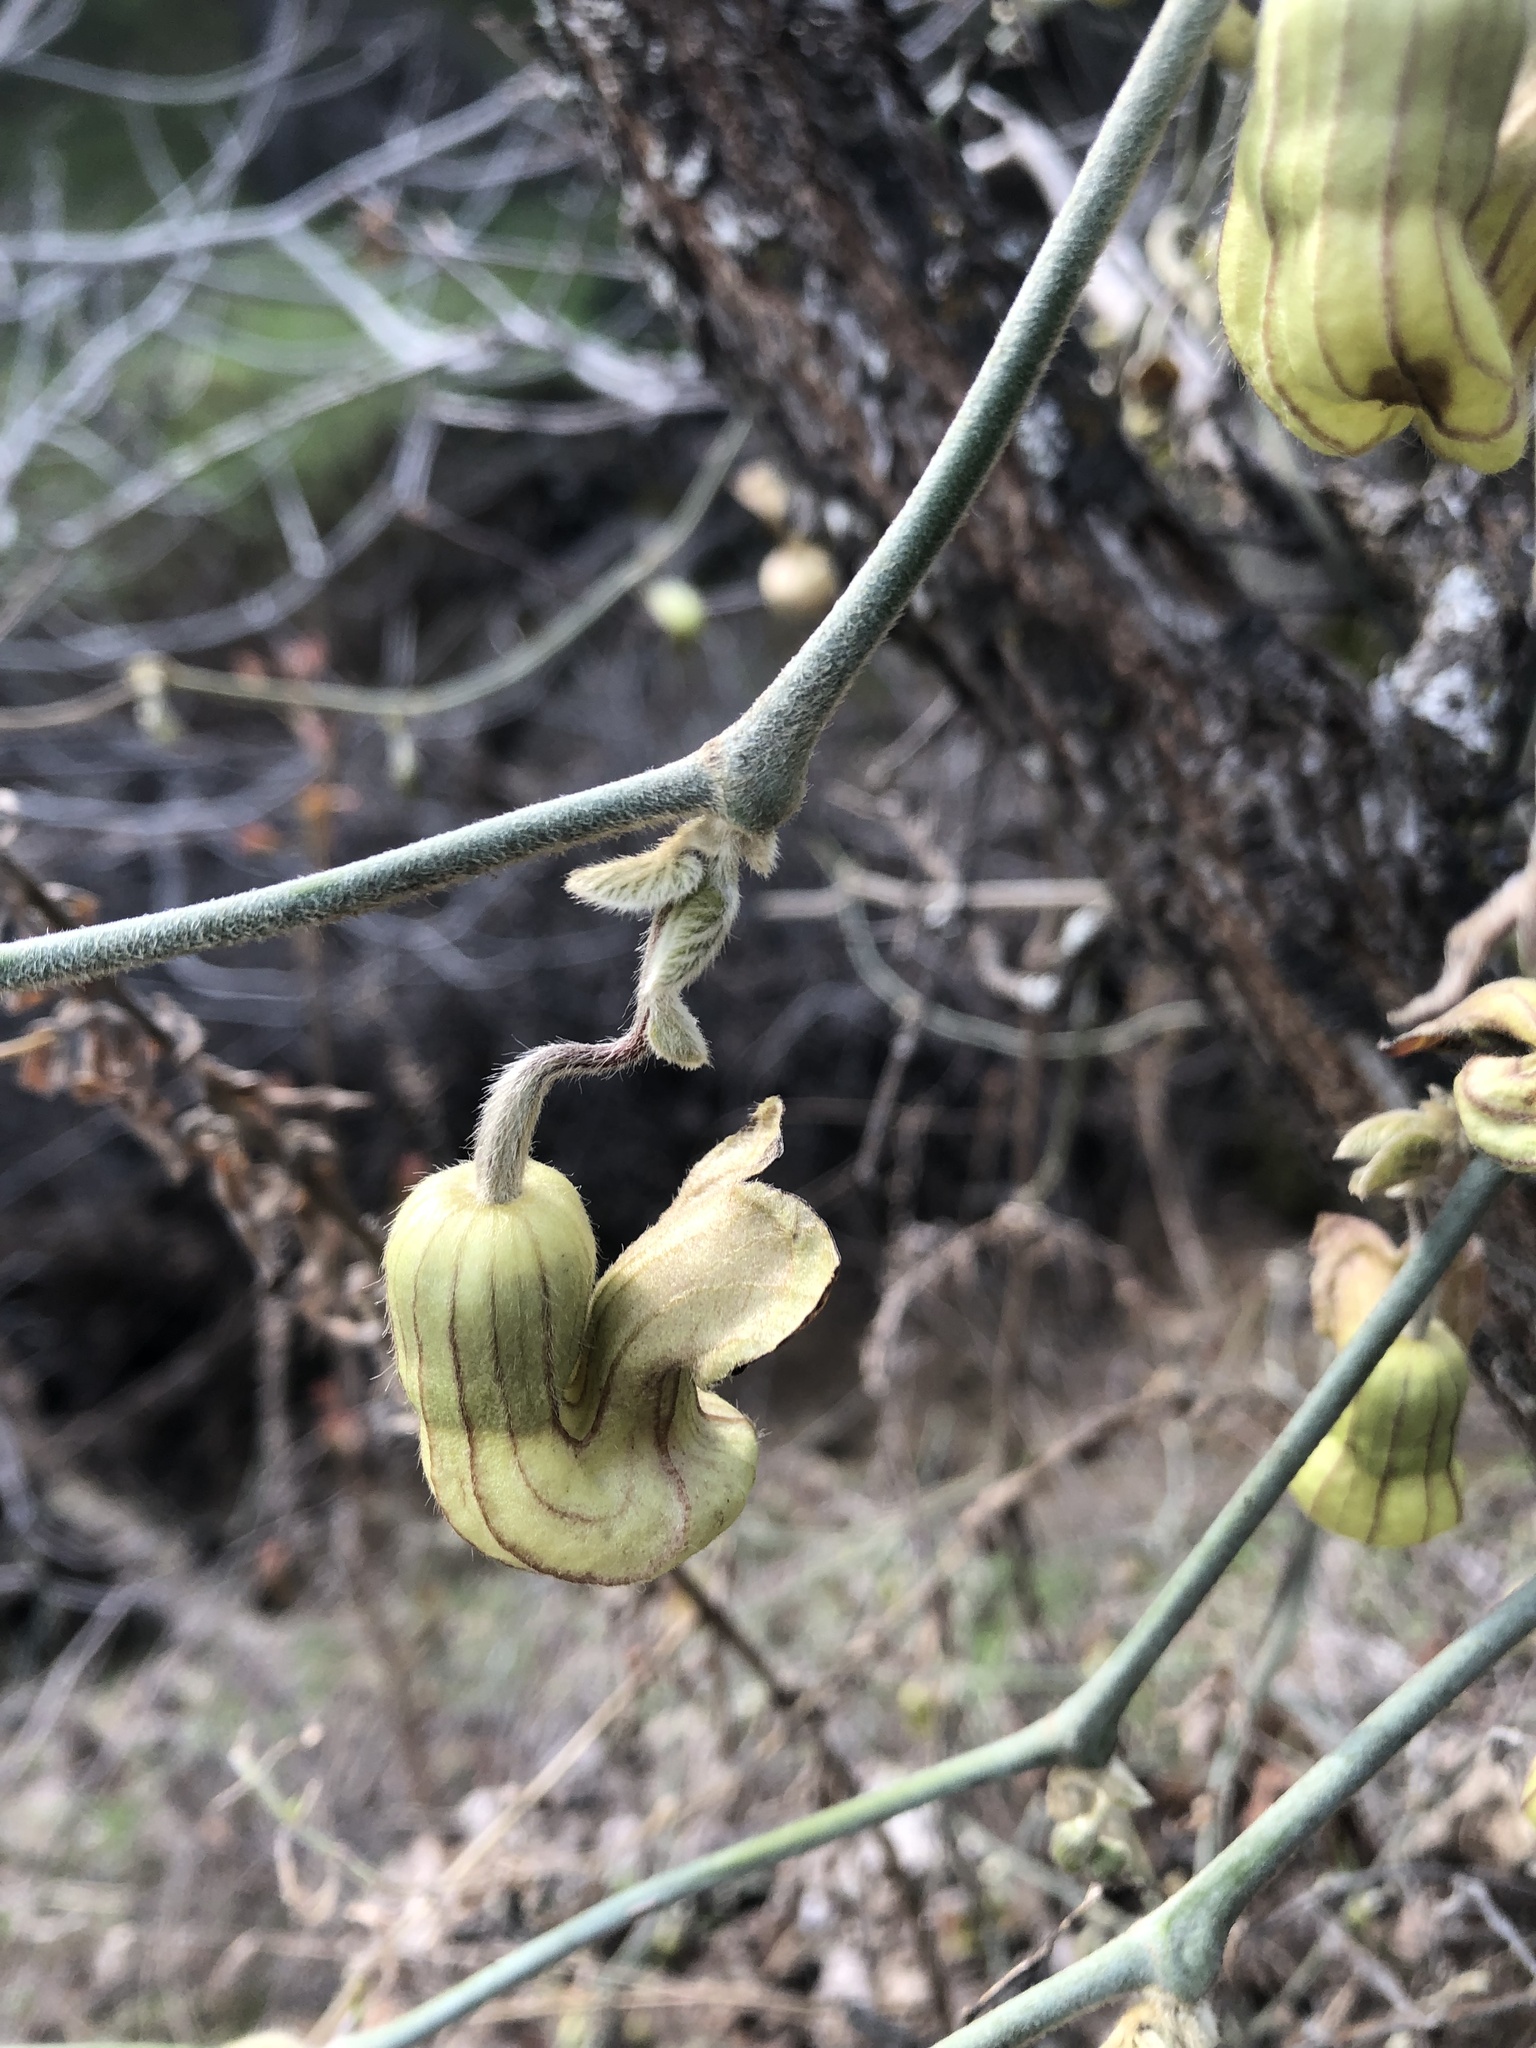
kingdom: Plantae
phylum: Tracheophyta
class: Magnoliopsida
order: Piperales
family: Aristolochiaceae
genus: Isotrema
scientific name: Isotrema californicum
